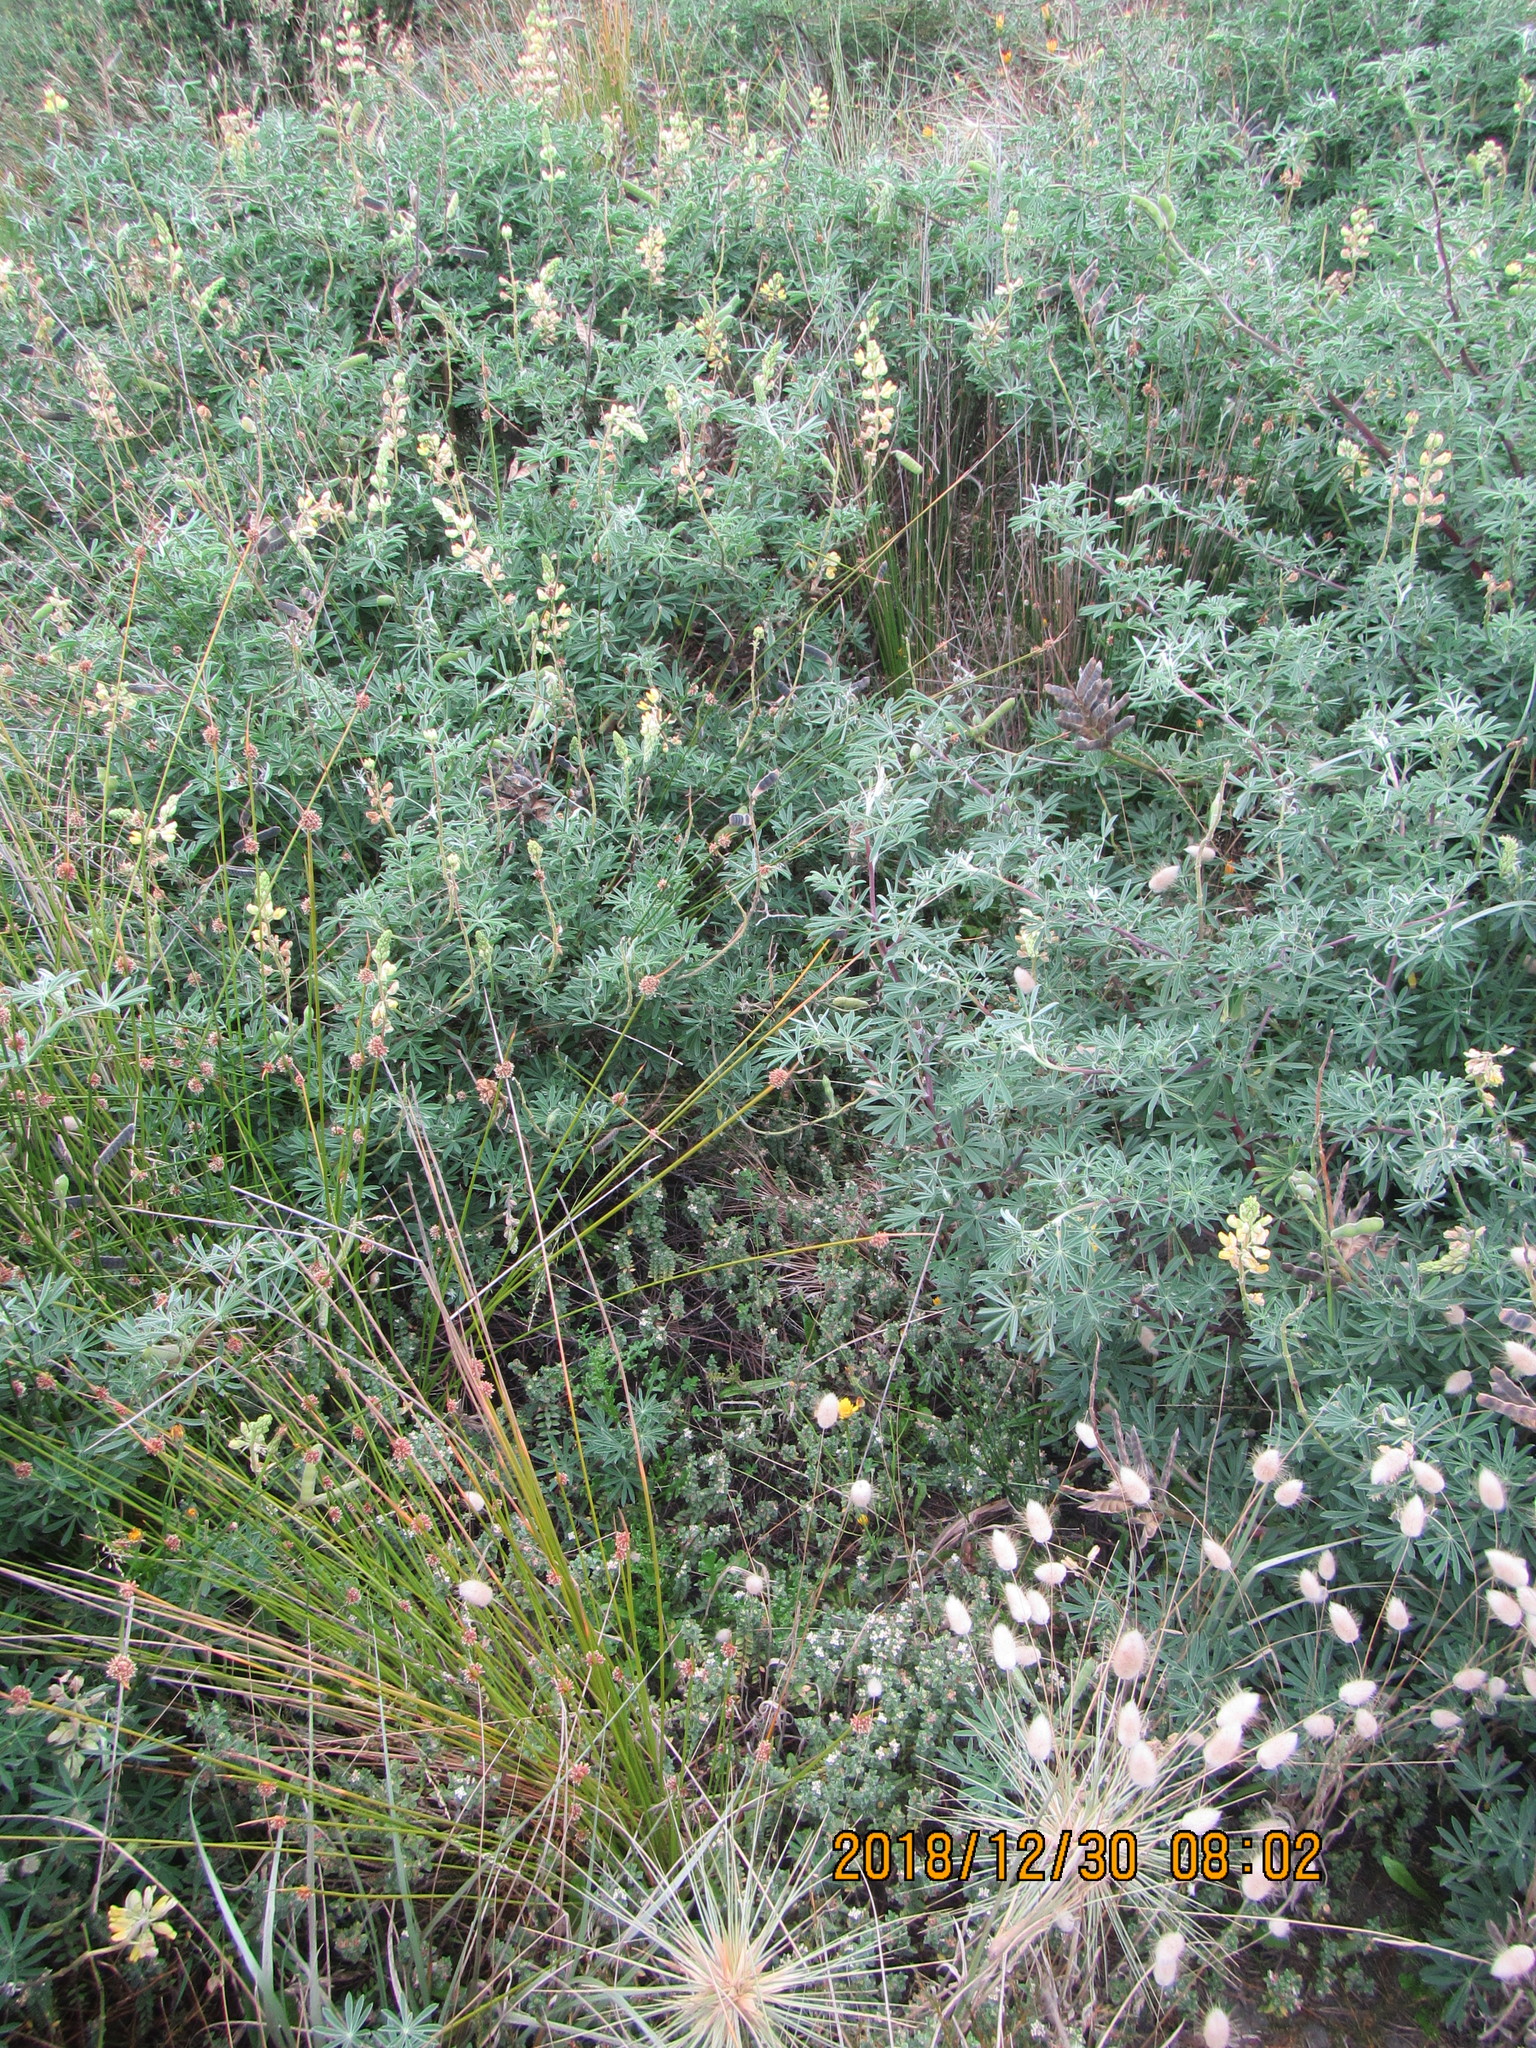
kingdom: Plantae
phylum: Tracheophyta
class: Magnoliopsida
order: Fabales
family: Fabaceae
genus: Lupinus
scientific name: Lupinus arboreus
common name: Yellow bush lupine
